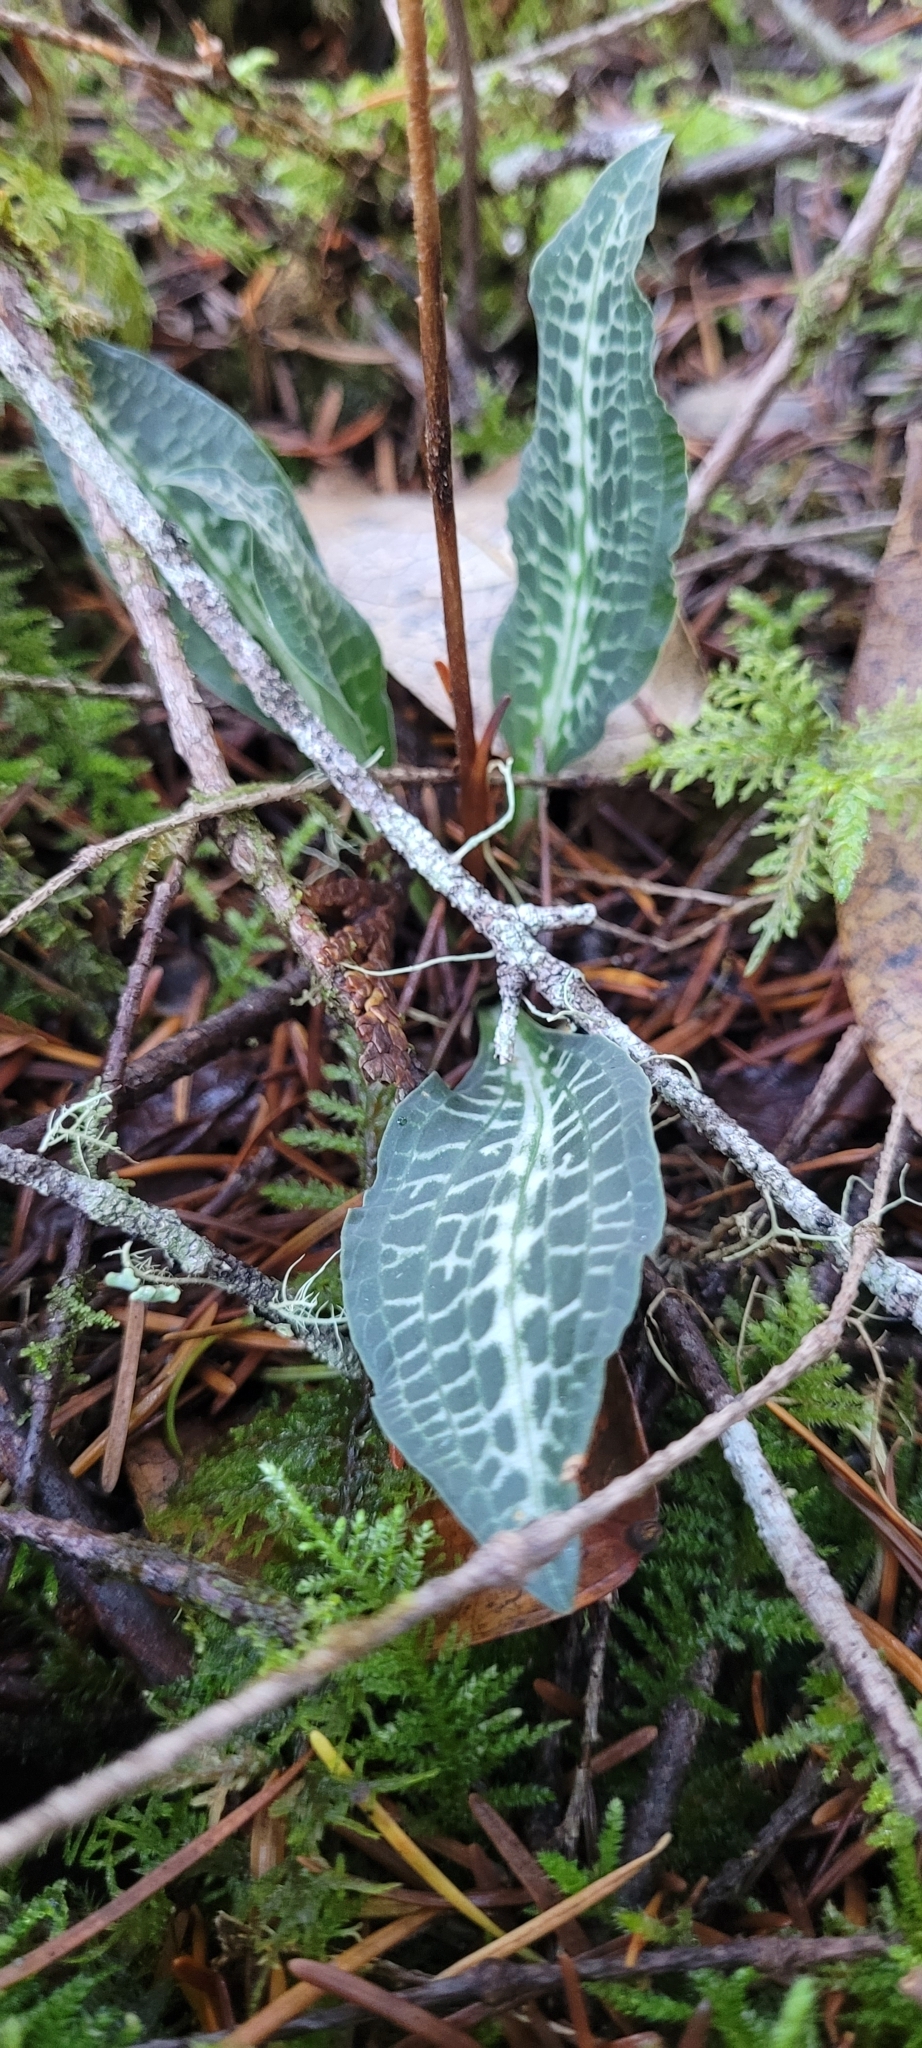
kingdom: Plantae
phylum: Tracheophyta
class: Liliopsida
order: Asparagales
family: Orchidaceae
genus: Goodyera
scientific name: Goodyera oblongifolia
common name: Giant rattlesnake-plantain
